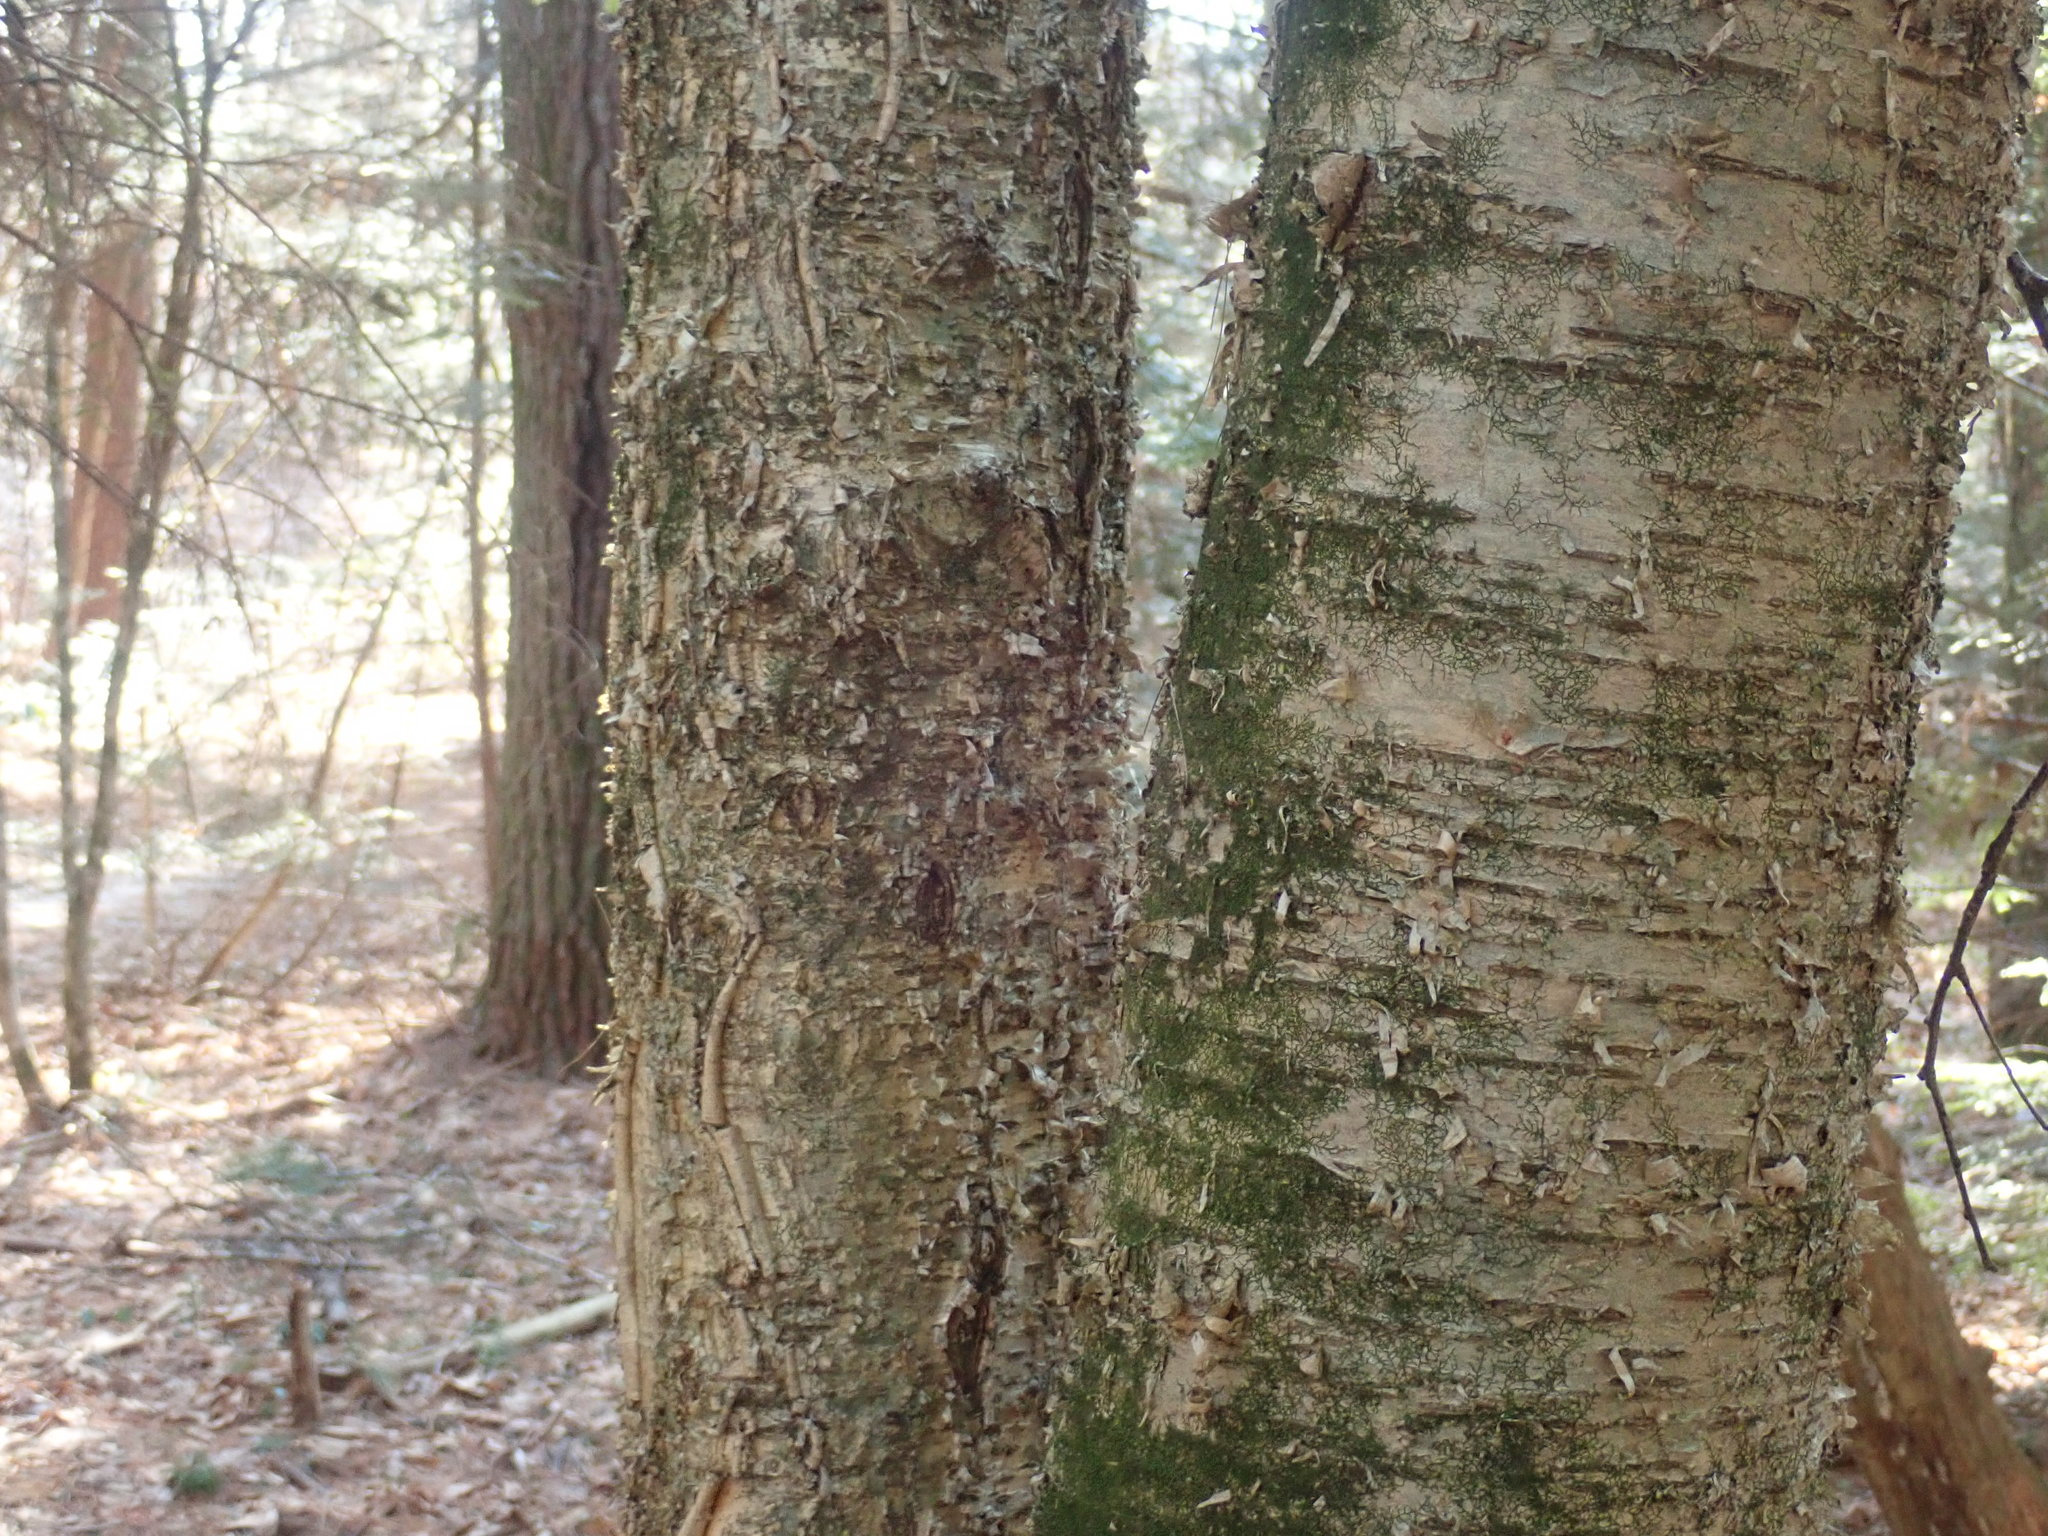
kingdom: Plantae
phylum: Tracheophyta
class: Magnoliopsida
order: Fagales
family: Betulaceae
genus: Betula
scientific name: Betula alleghaniensis
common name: Yellow birch
